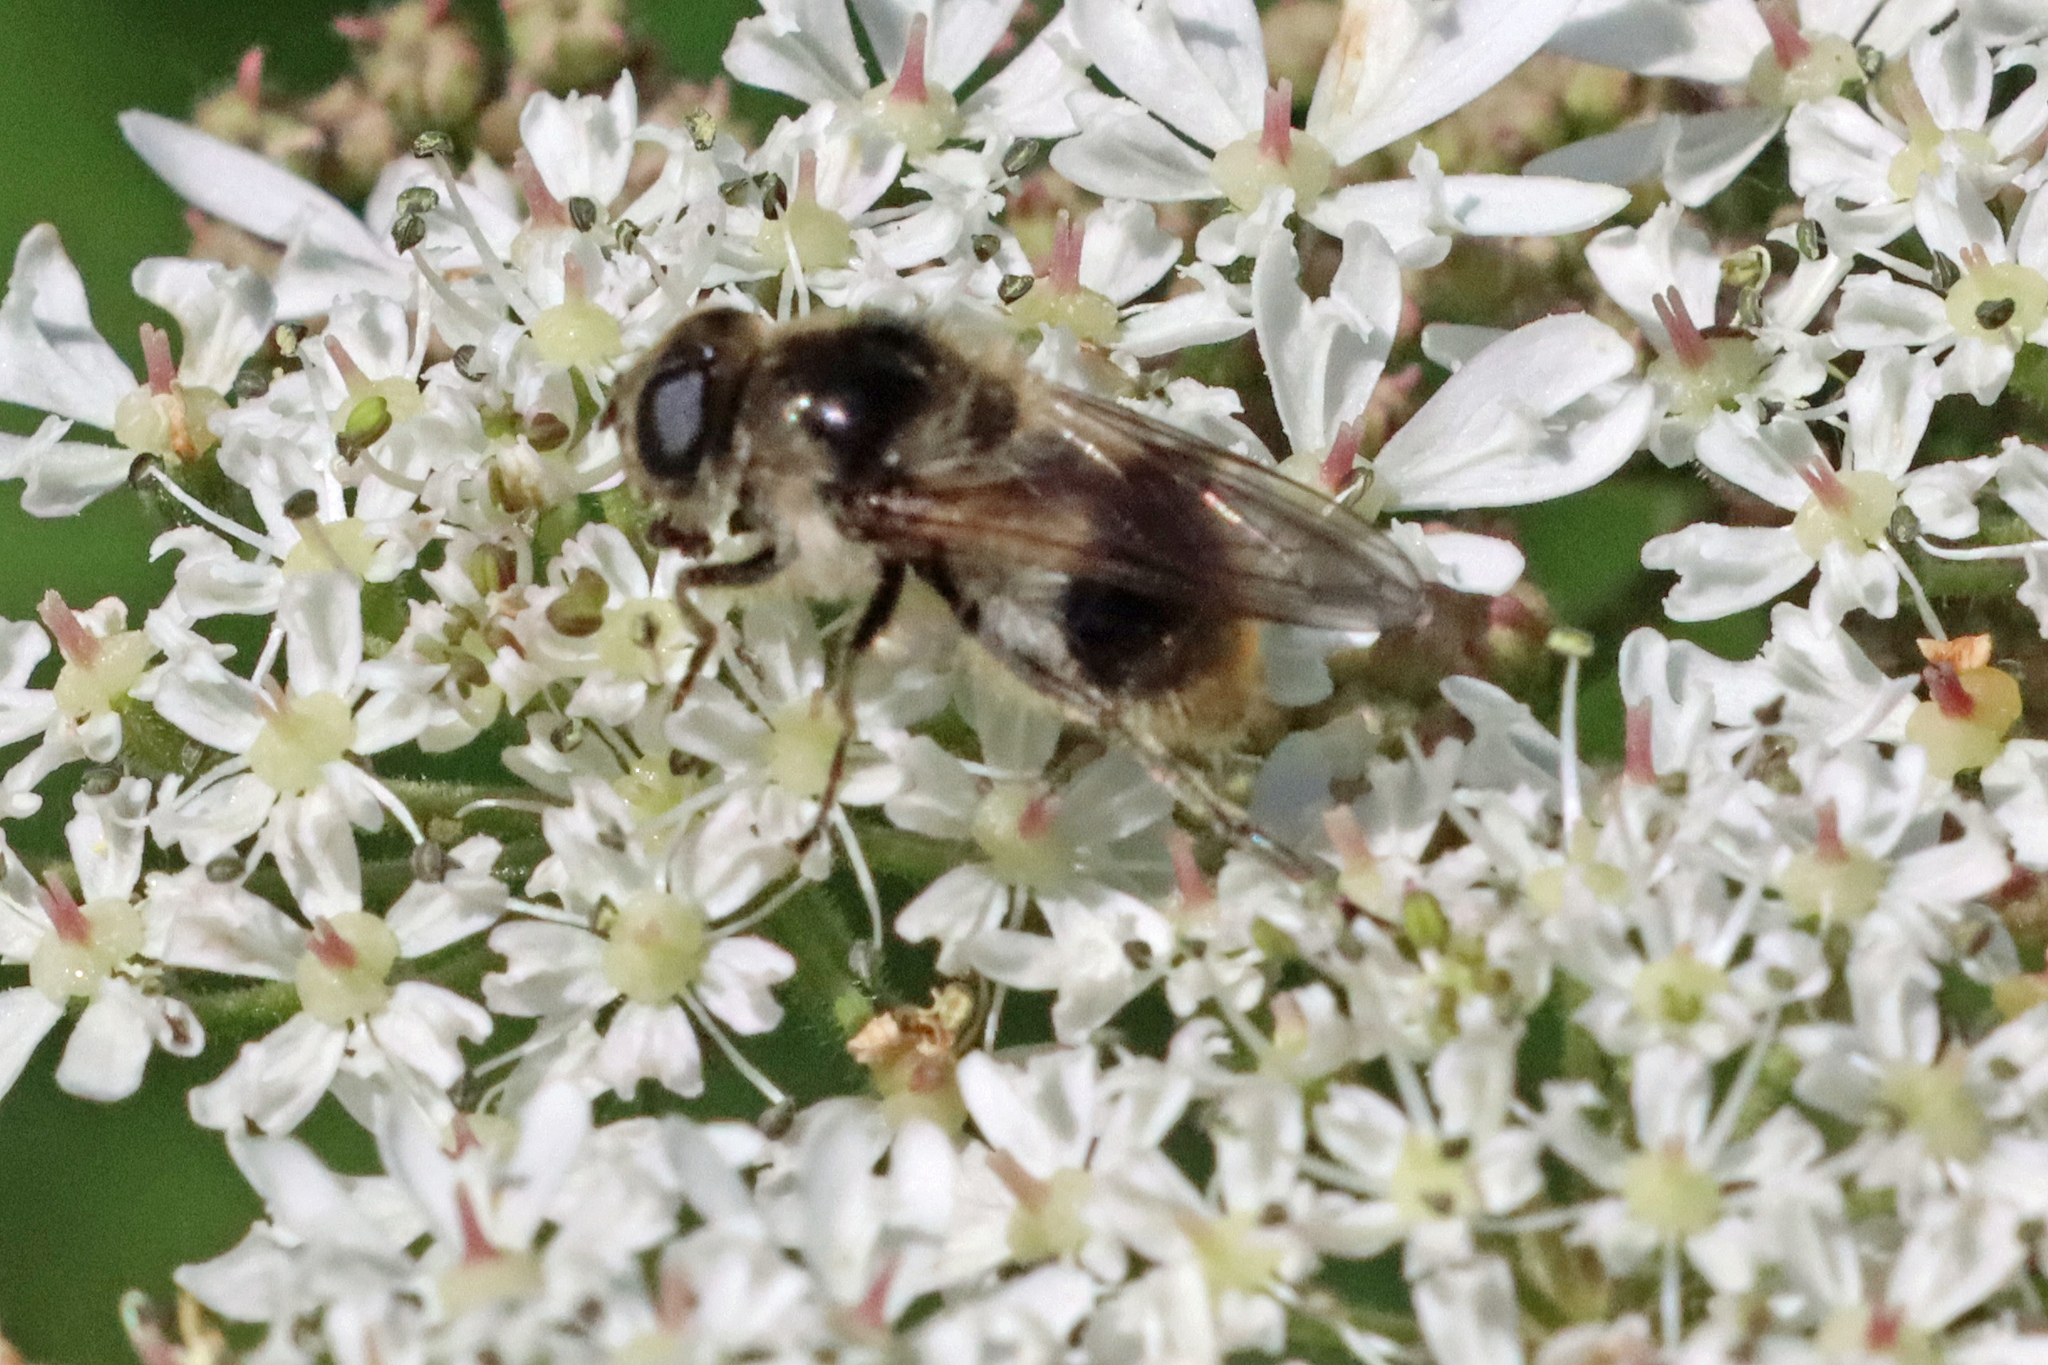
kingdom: Animalia
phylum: Arthropoda
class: Insecta
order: Diptera
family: Syrphidae
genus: Cheilosia
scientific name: Cheilosia illustrata
